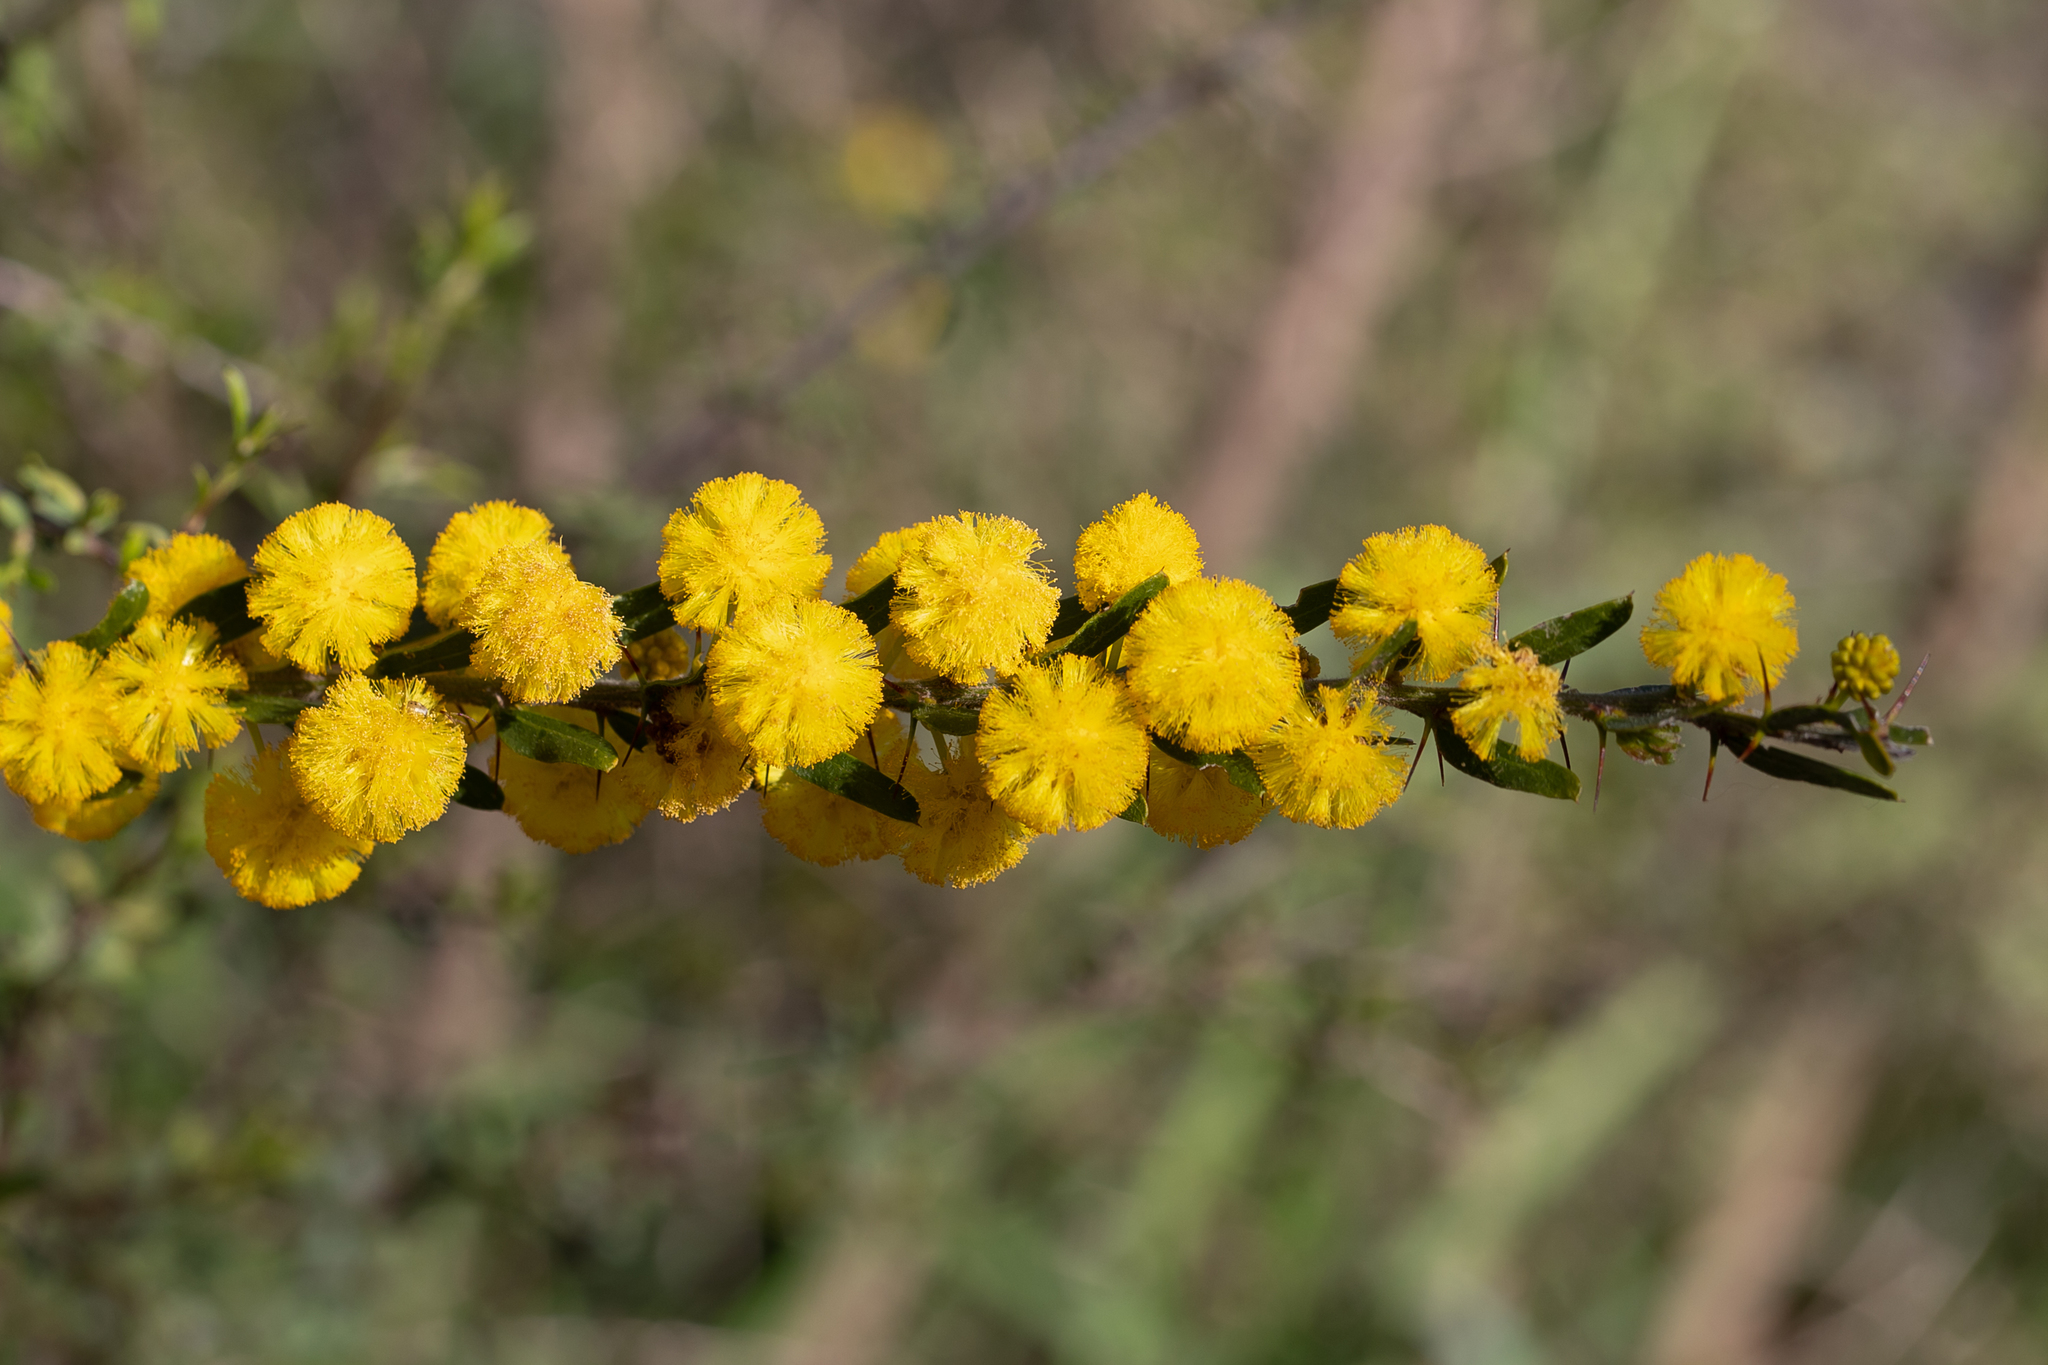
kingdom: Plantae
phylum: Tracheophyta
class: Magnoliopsida
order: Fabales
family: Fabaceae
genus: Acacia
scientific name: Acacia paradoxa
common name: Paradox acacia
